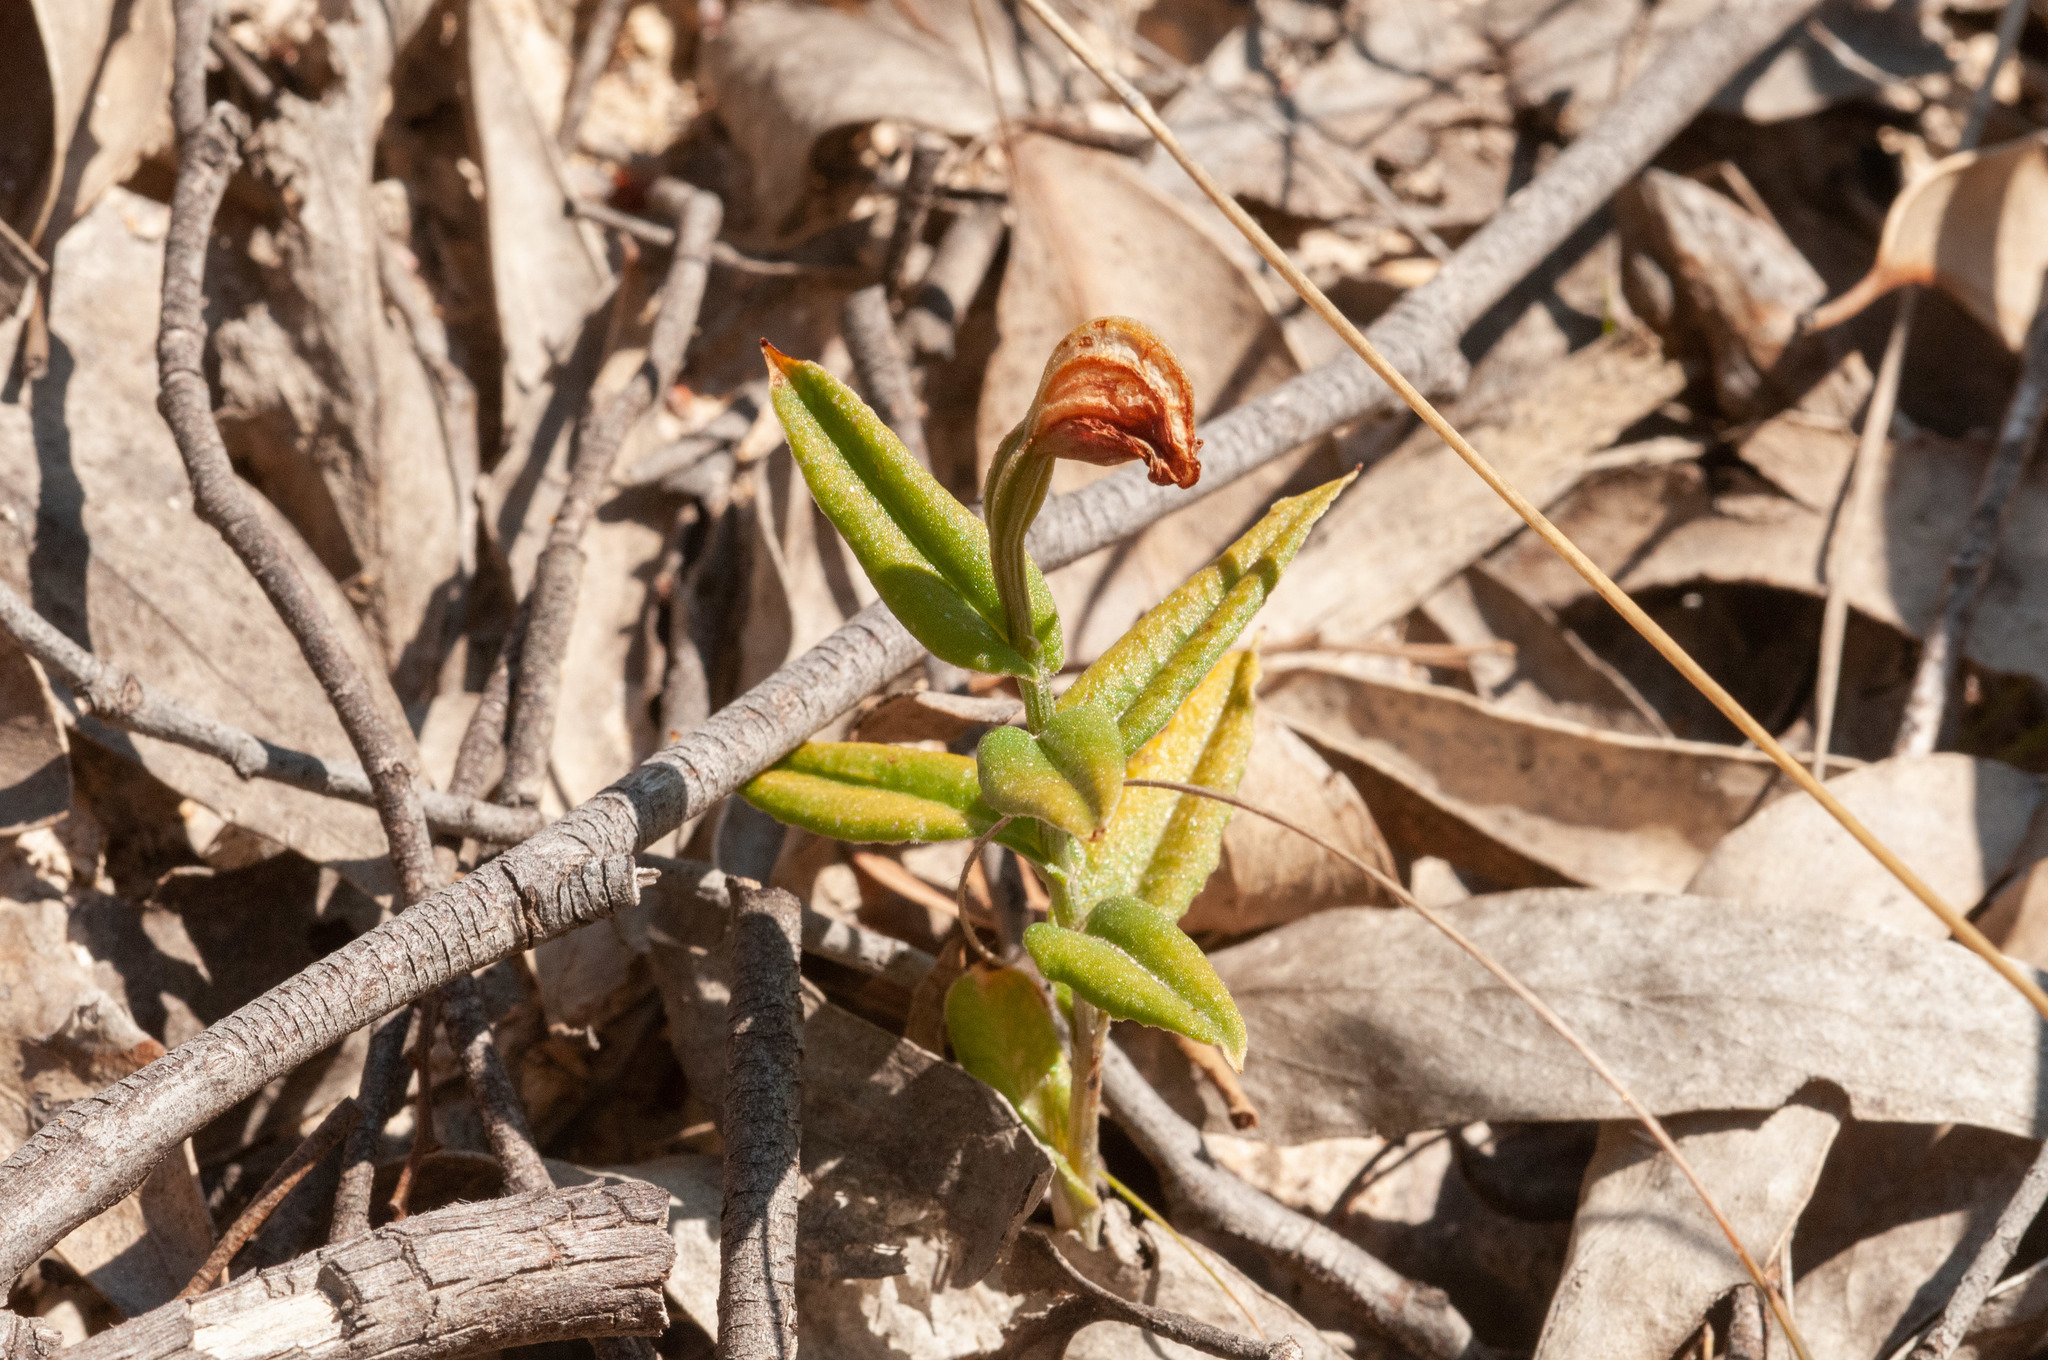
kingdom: Plantae
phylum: Tracheophyta
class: Liliopsida
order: Asparagales
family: Orchidaceae
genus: Pterostylis
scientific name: Pterostylis sanguinea
